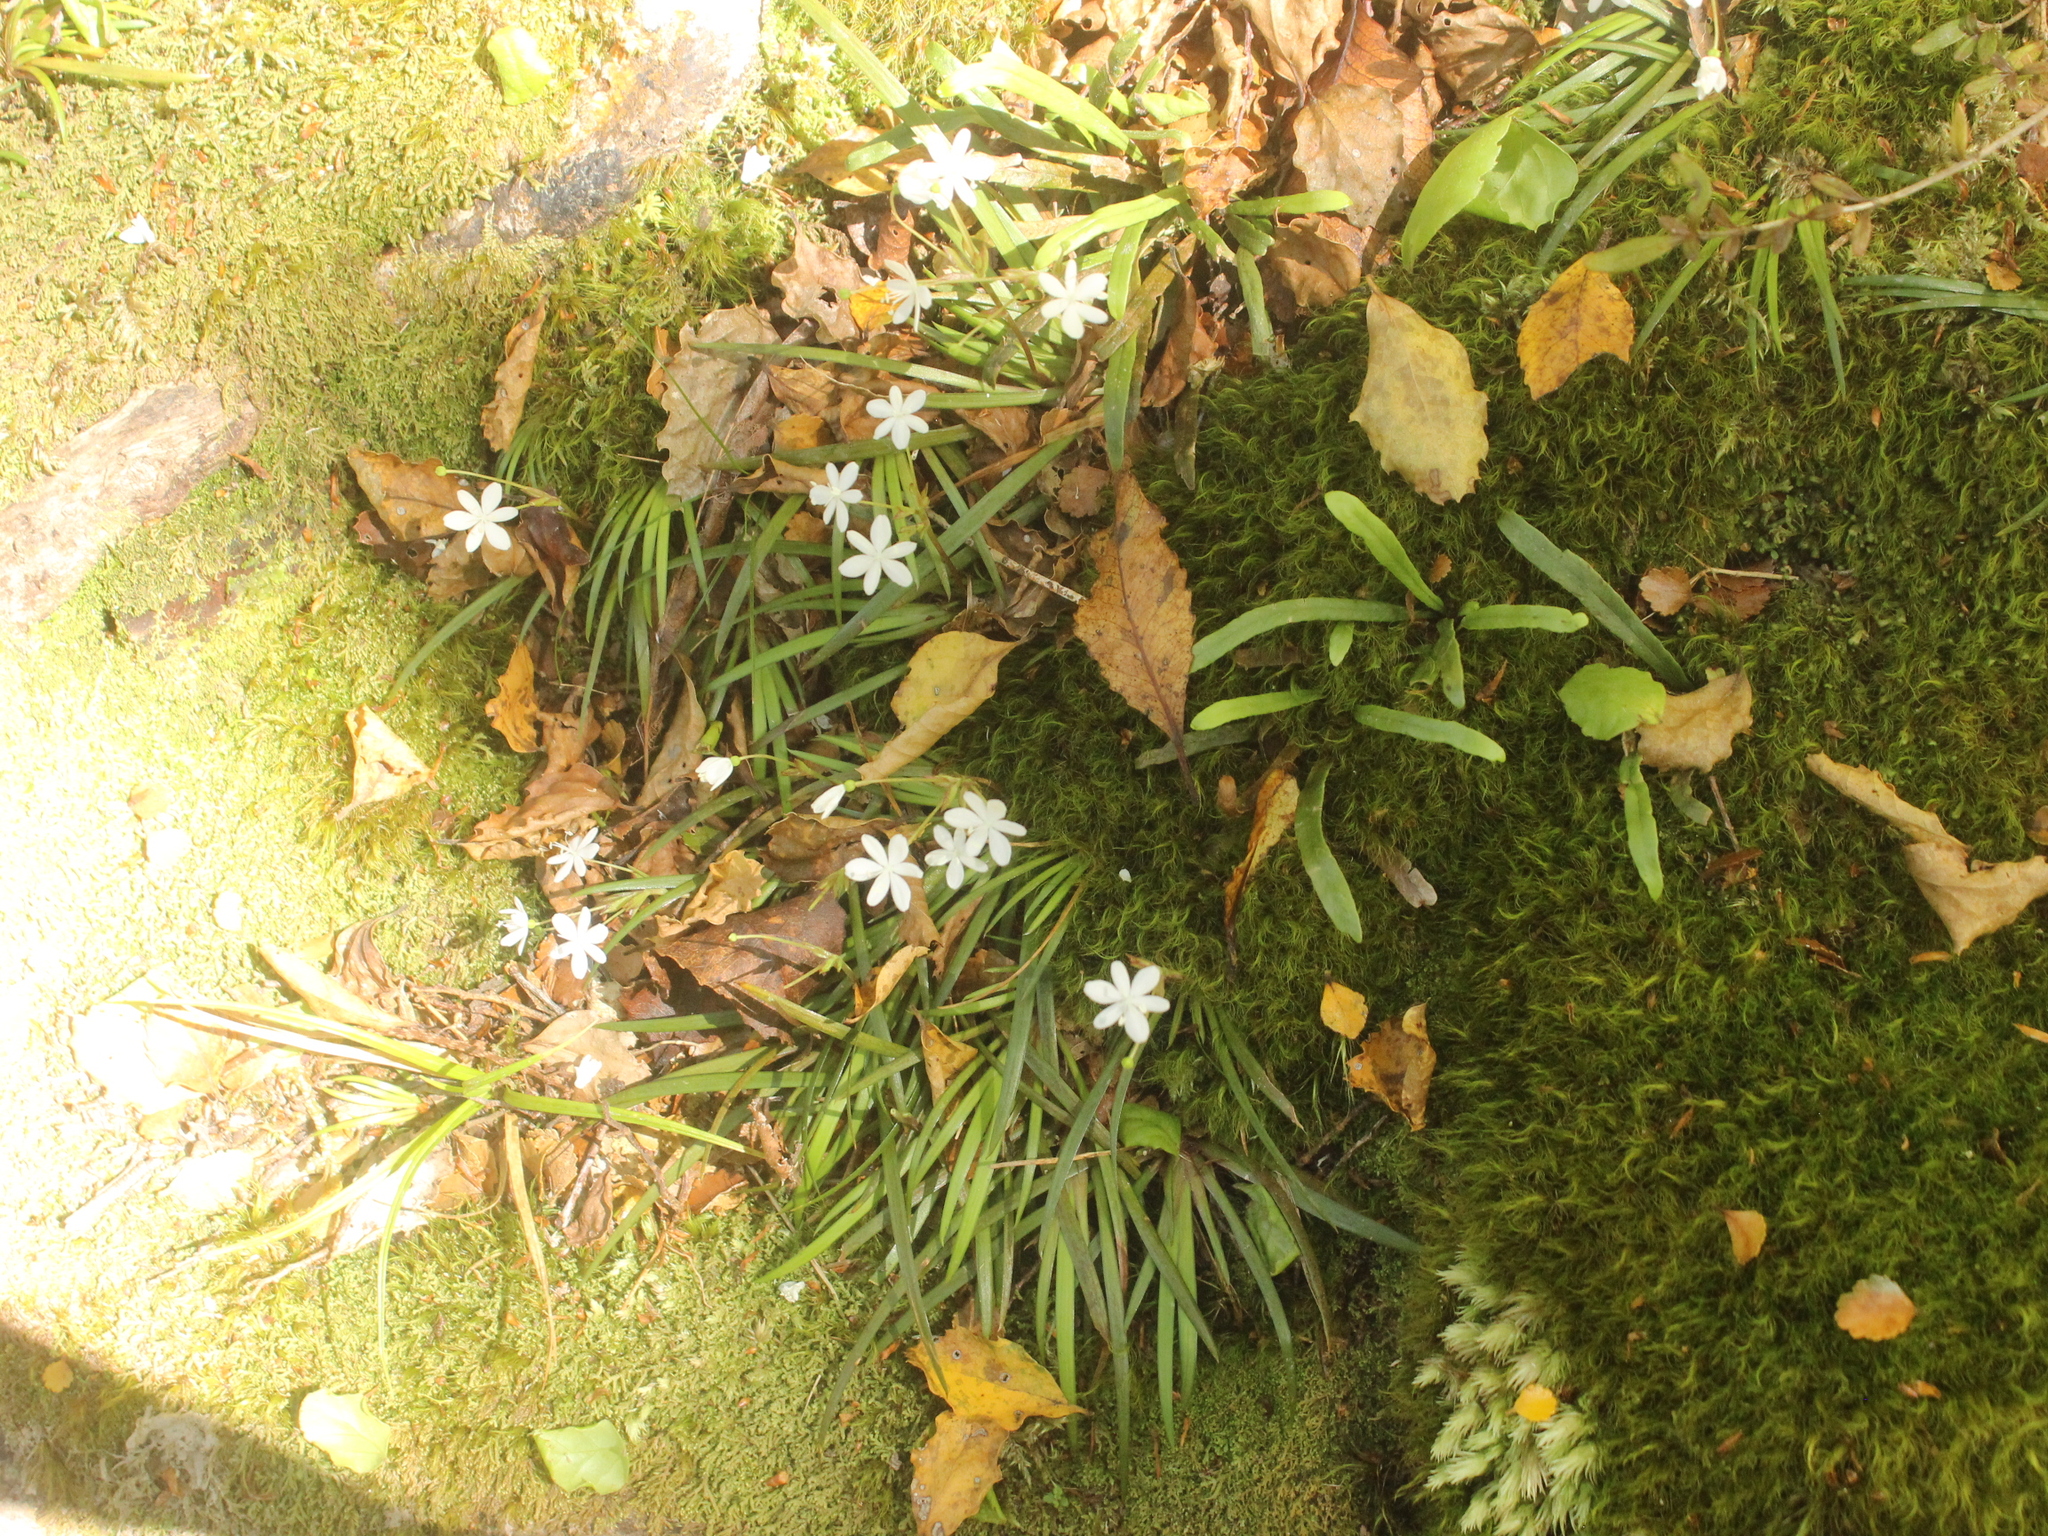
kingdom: Plantae
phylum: Tracheophyta
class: Liliopsida
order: Asparagales
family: Iridaceae
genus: Libertia
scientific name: Libertia micrantha
